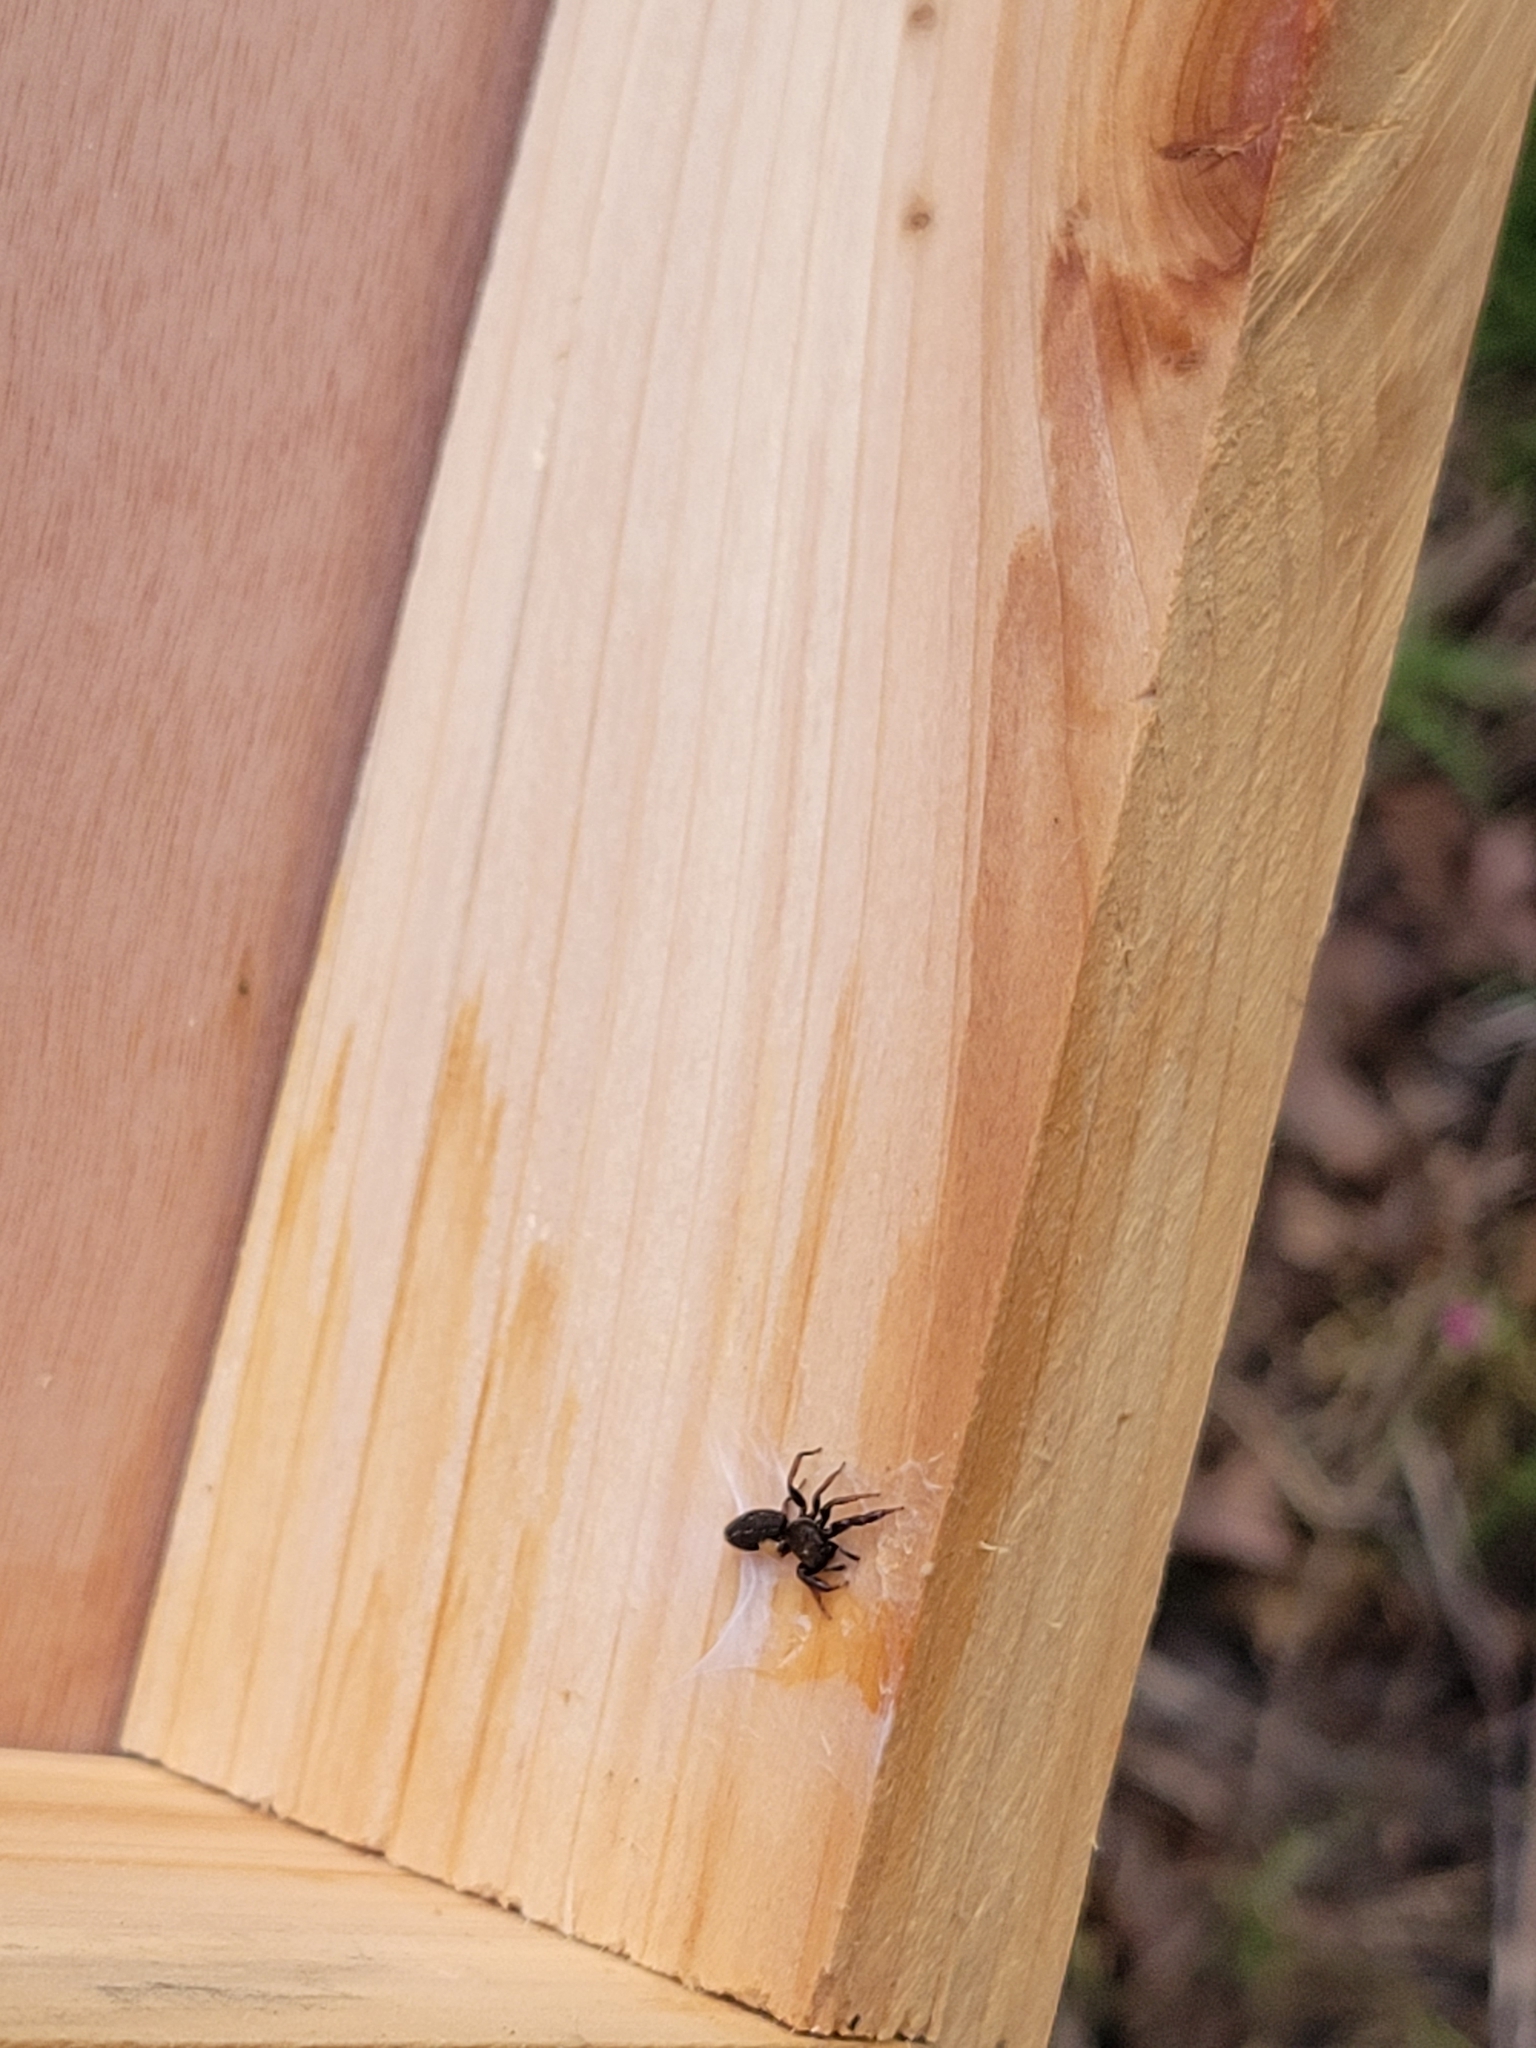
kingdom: Animalia
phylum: Arthropoda
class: Arachnida
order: Araneae
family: Salticidae
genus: Metacyrba
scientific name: Metacyrba taeniola
